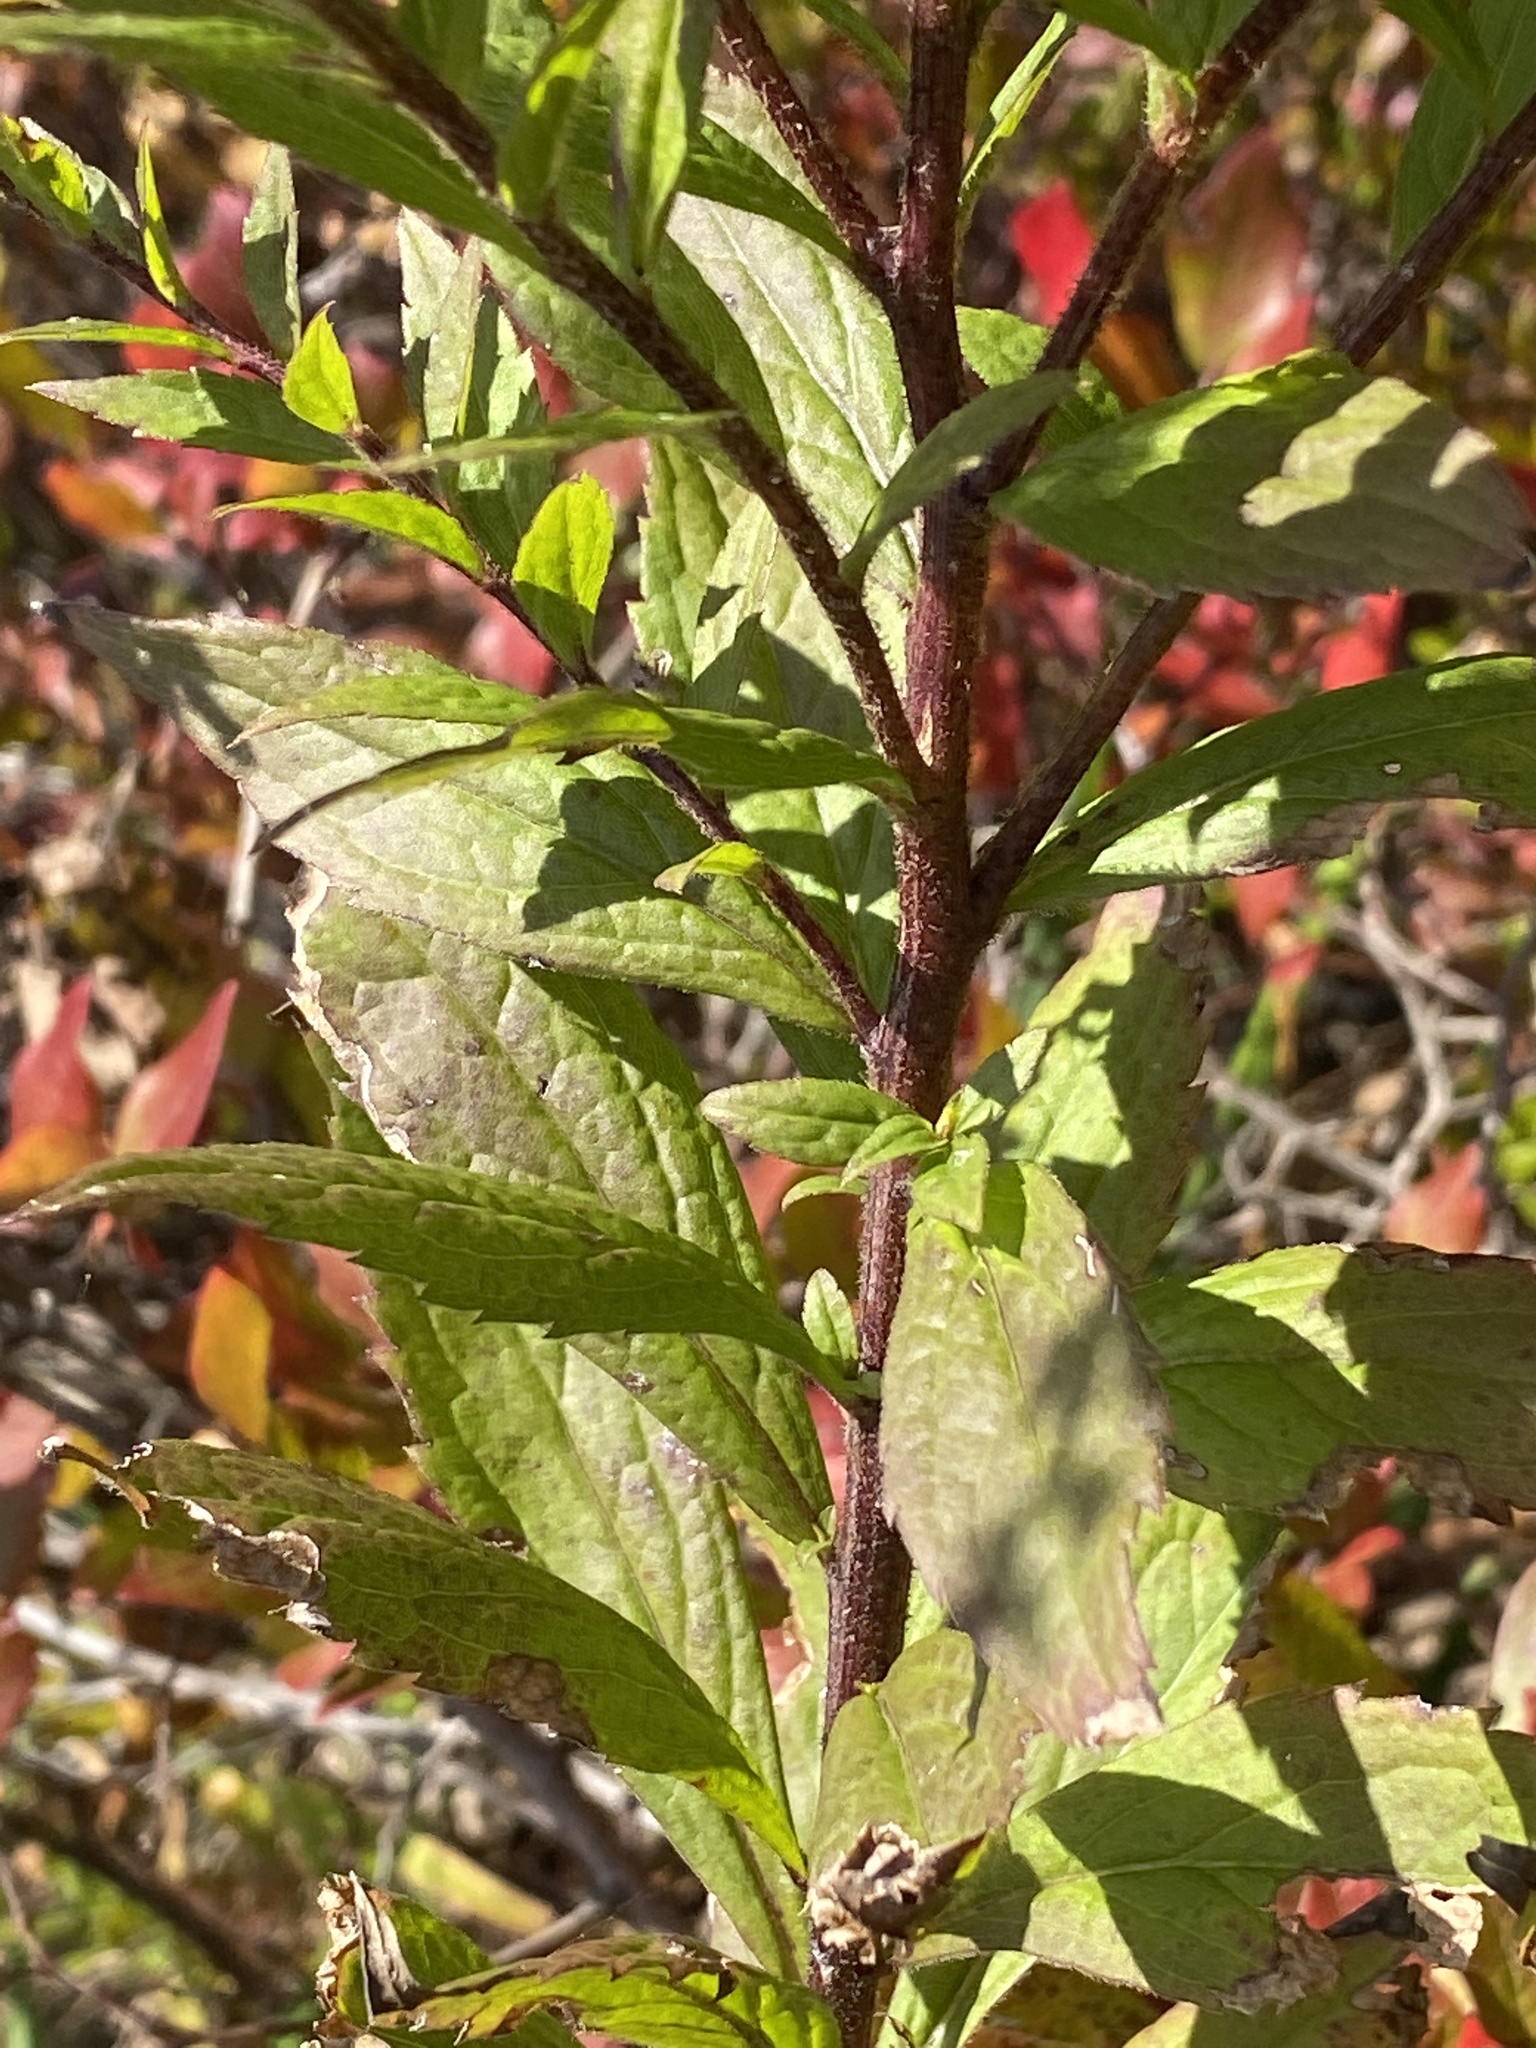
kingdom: Plantae
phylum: Tracheophyta
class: Magnoliopsida
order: Asterales
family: Asteraceae
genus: Solidago
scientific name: Solidago rugosa
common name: Rough-stemmed goldenrod
